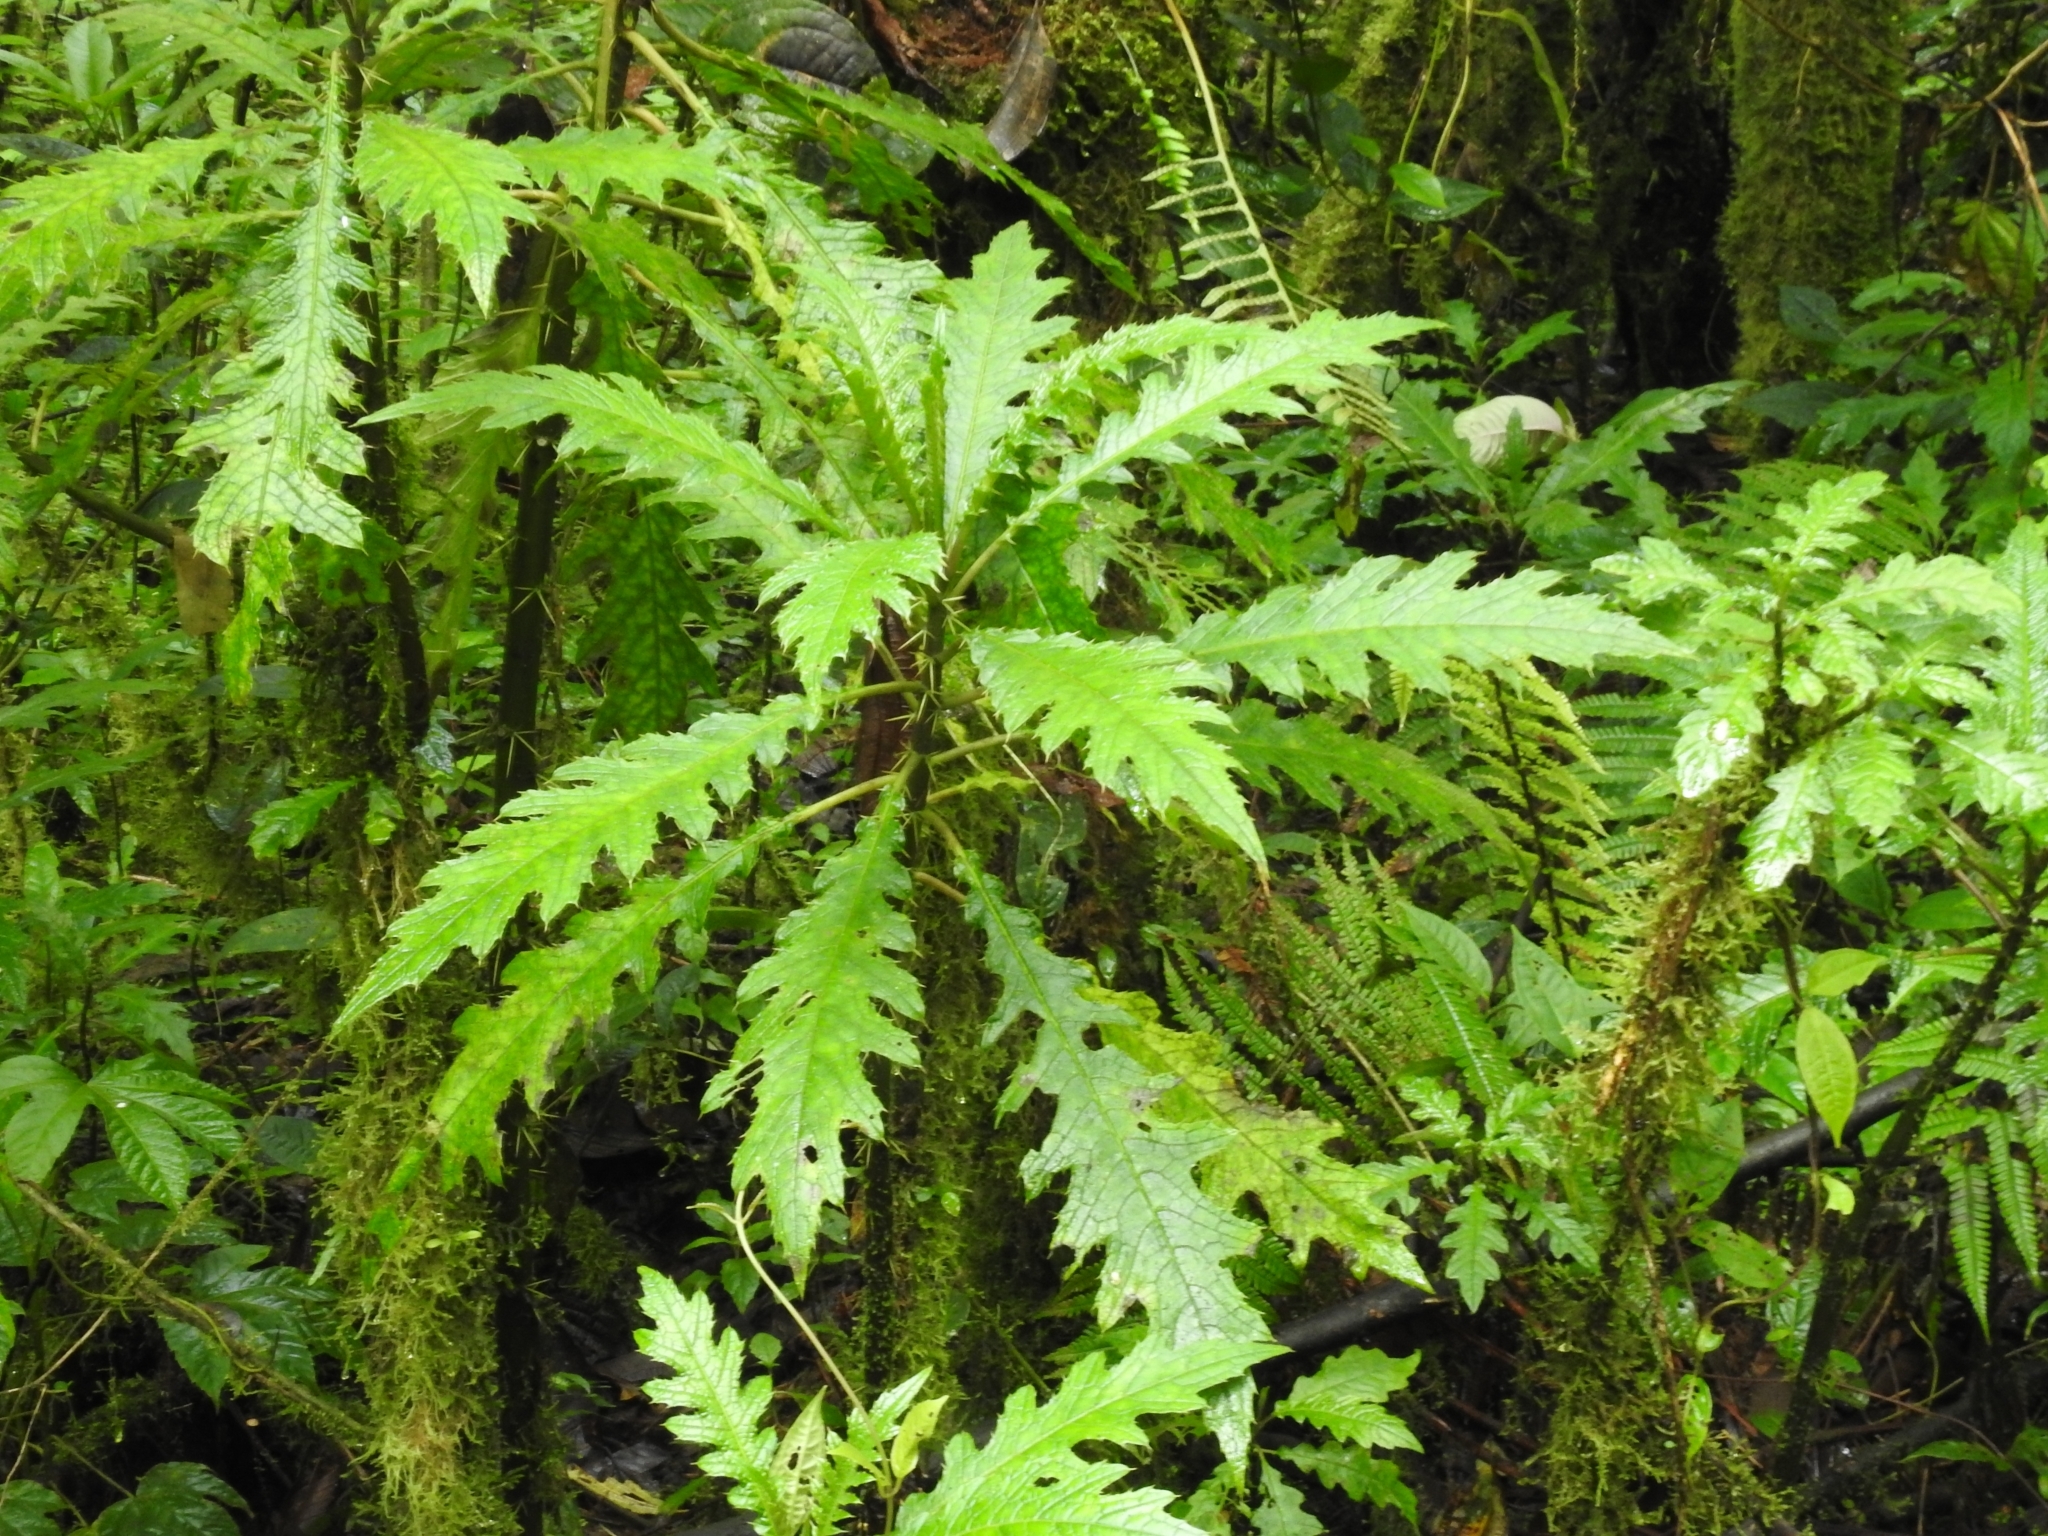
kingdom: Plantae
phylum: Tracheophyta
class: Magnoliopsida
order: Lamiales
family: Acanthaceae
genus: Aphelandra
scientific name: Aphelandra acanthus
